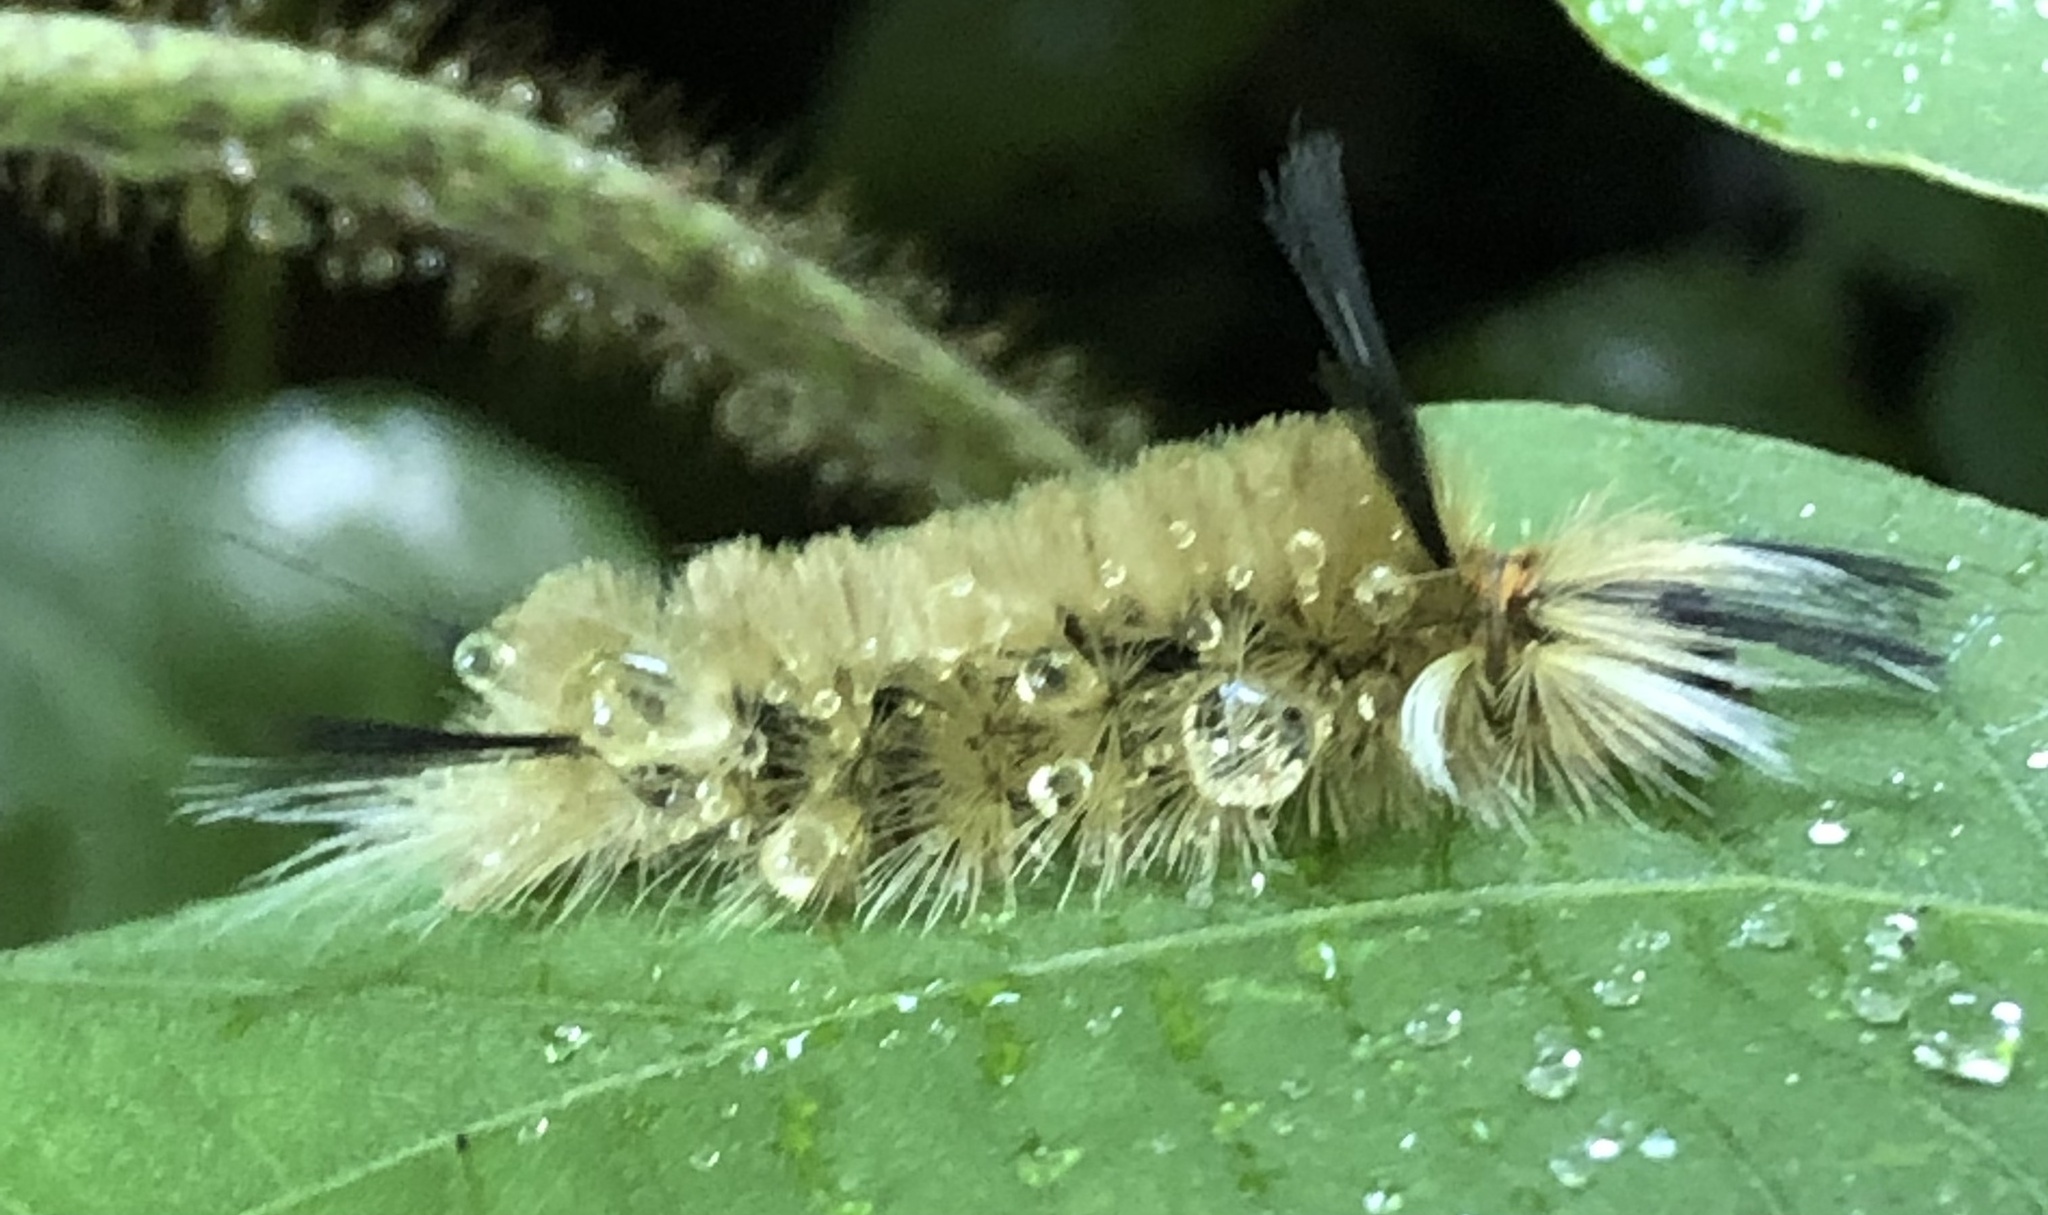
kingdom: Animalia
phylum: Arthropoda
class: Insecta
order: Lepidoptera
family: Erebidae
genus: Halysidota
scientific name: Halysidota tessellaris
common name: Banded tussock moth
